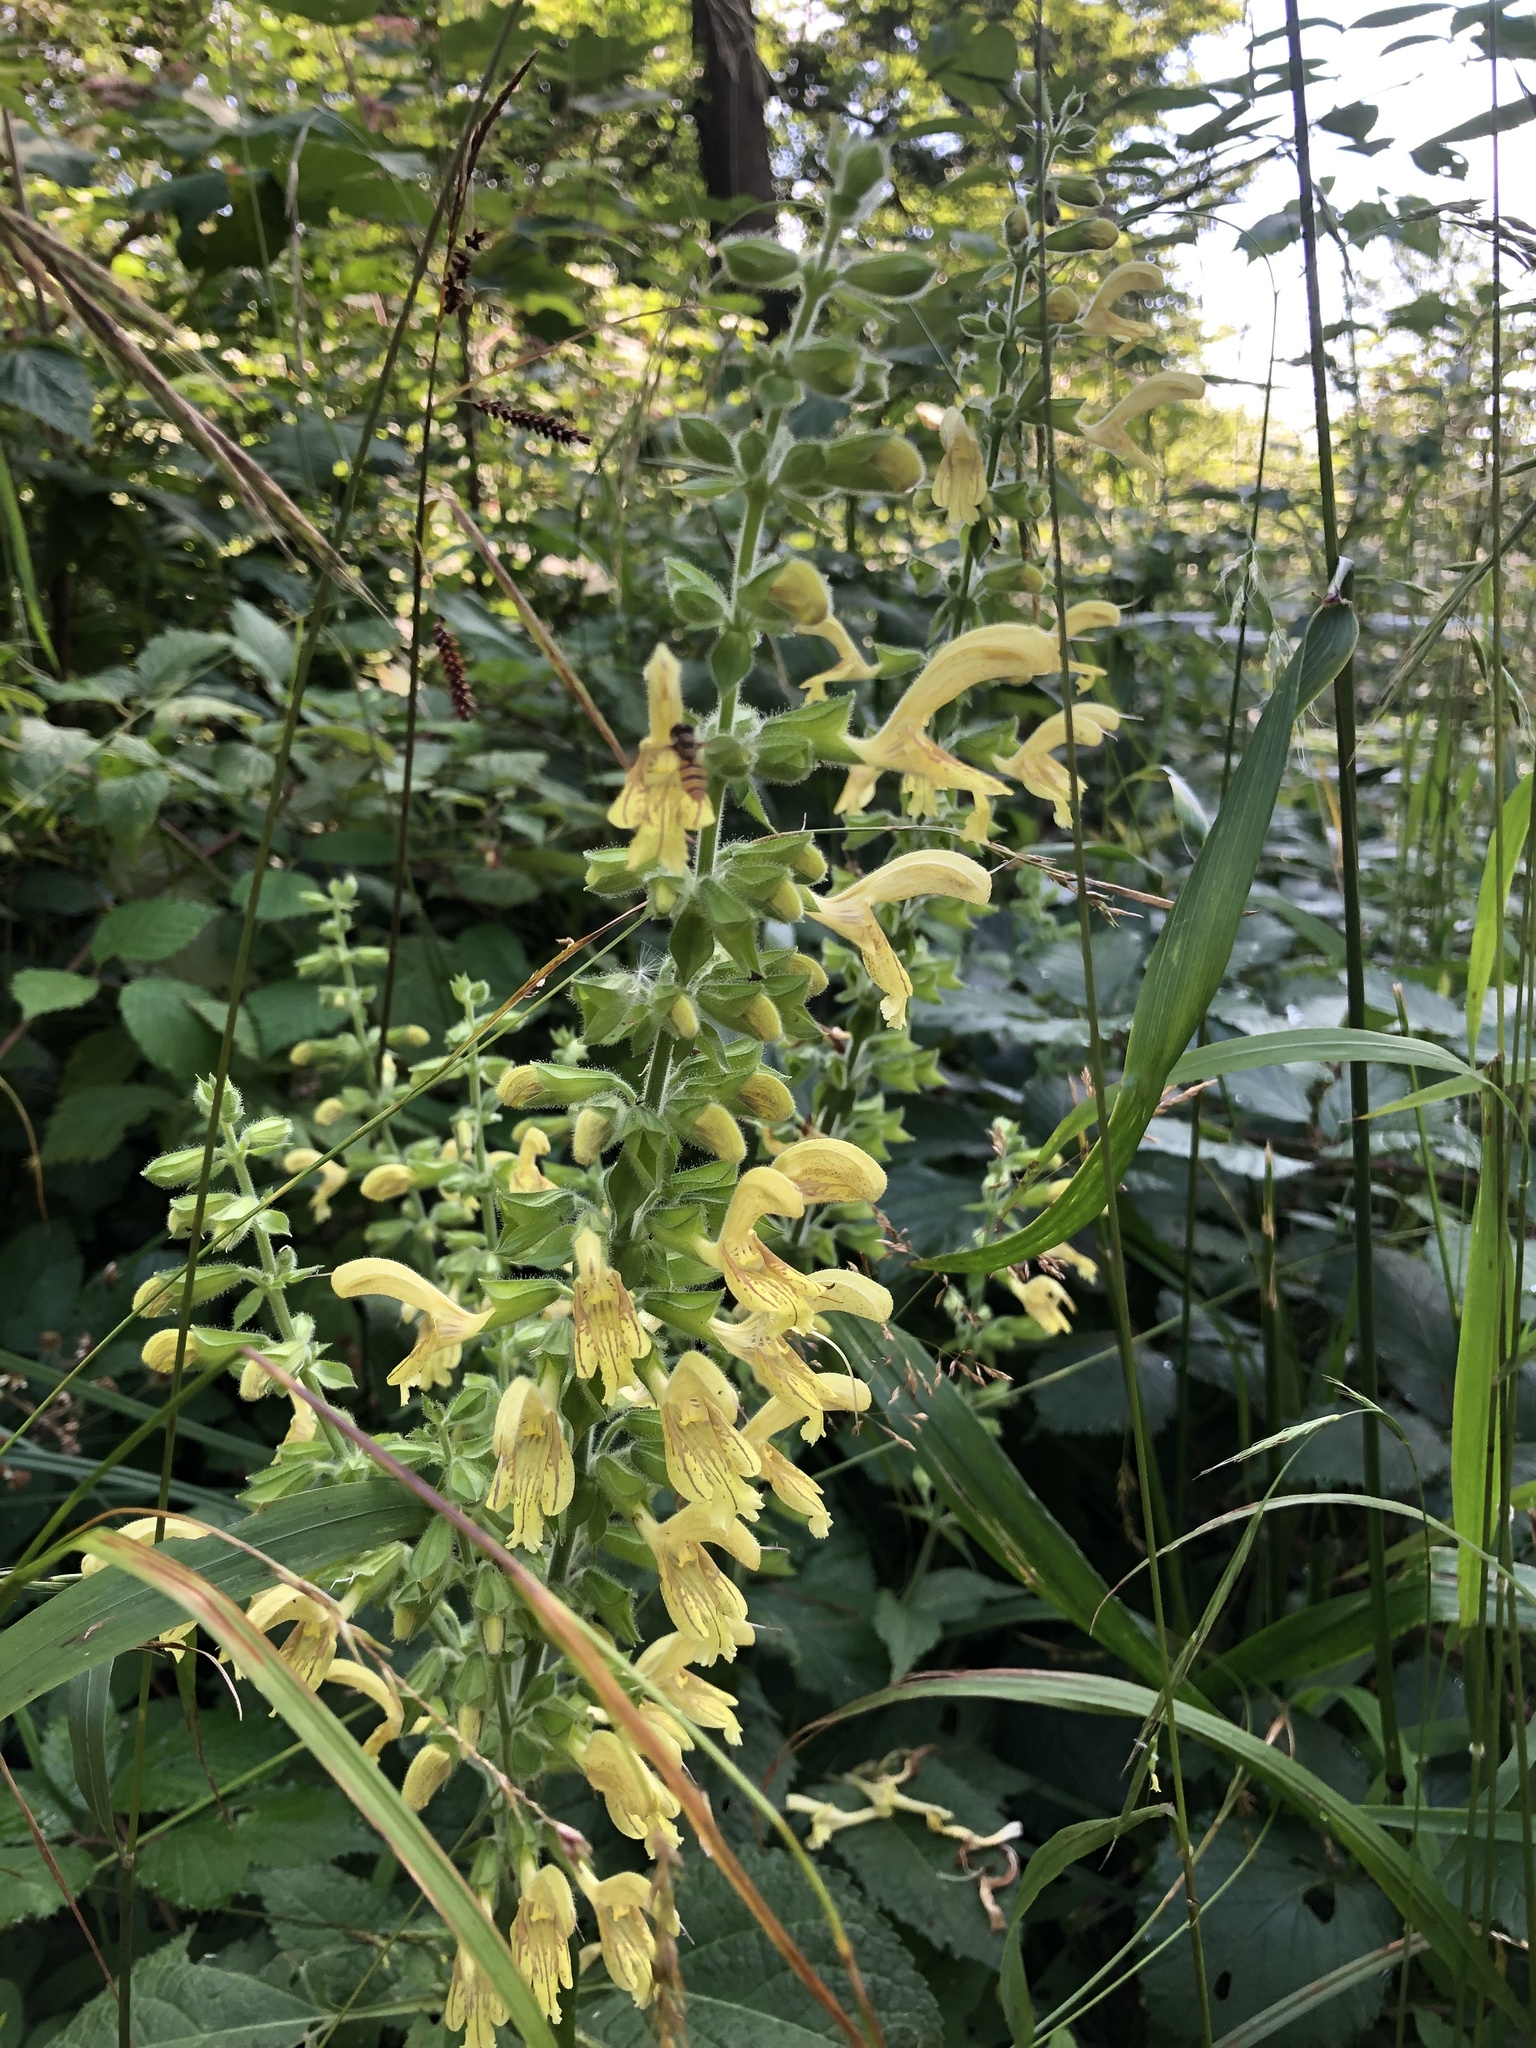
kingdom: Plantae
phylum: Tracheophyta
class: Magnoliopsida
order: Lamiales
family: Lamiaceae
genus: Salvia
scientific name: Salvia glutinosa
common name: Sticky clary
